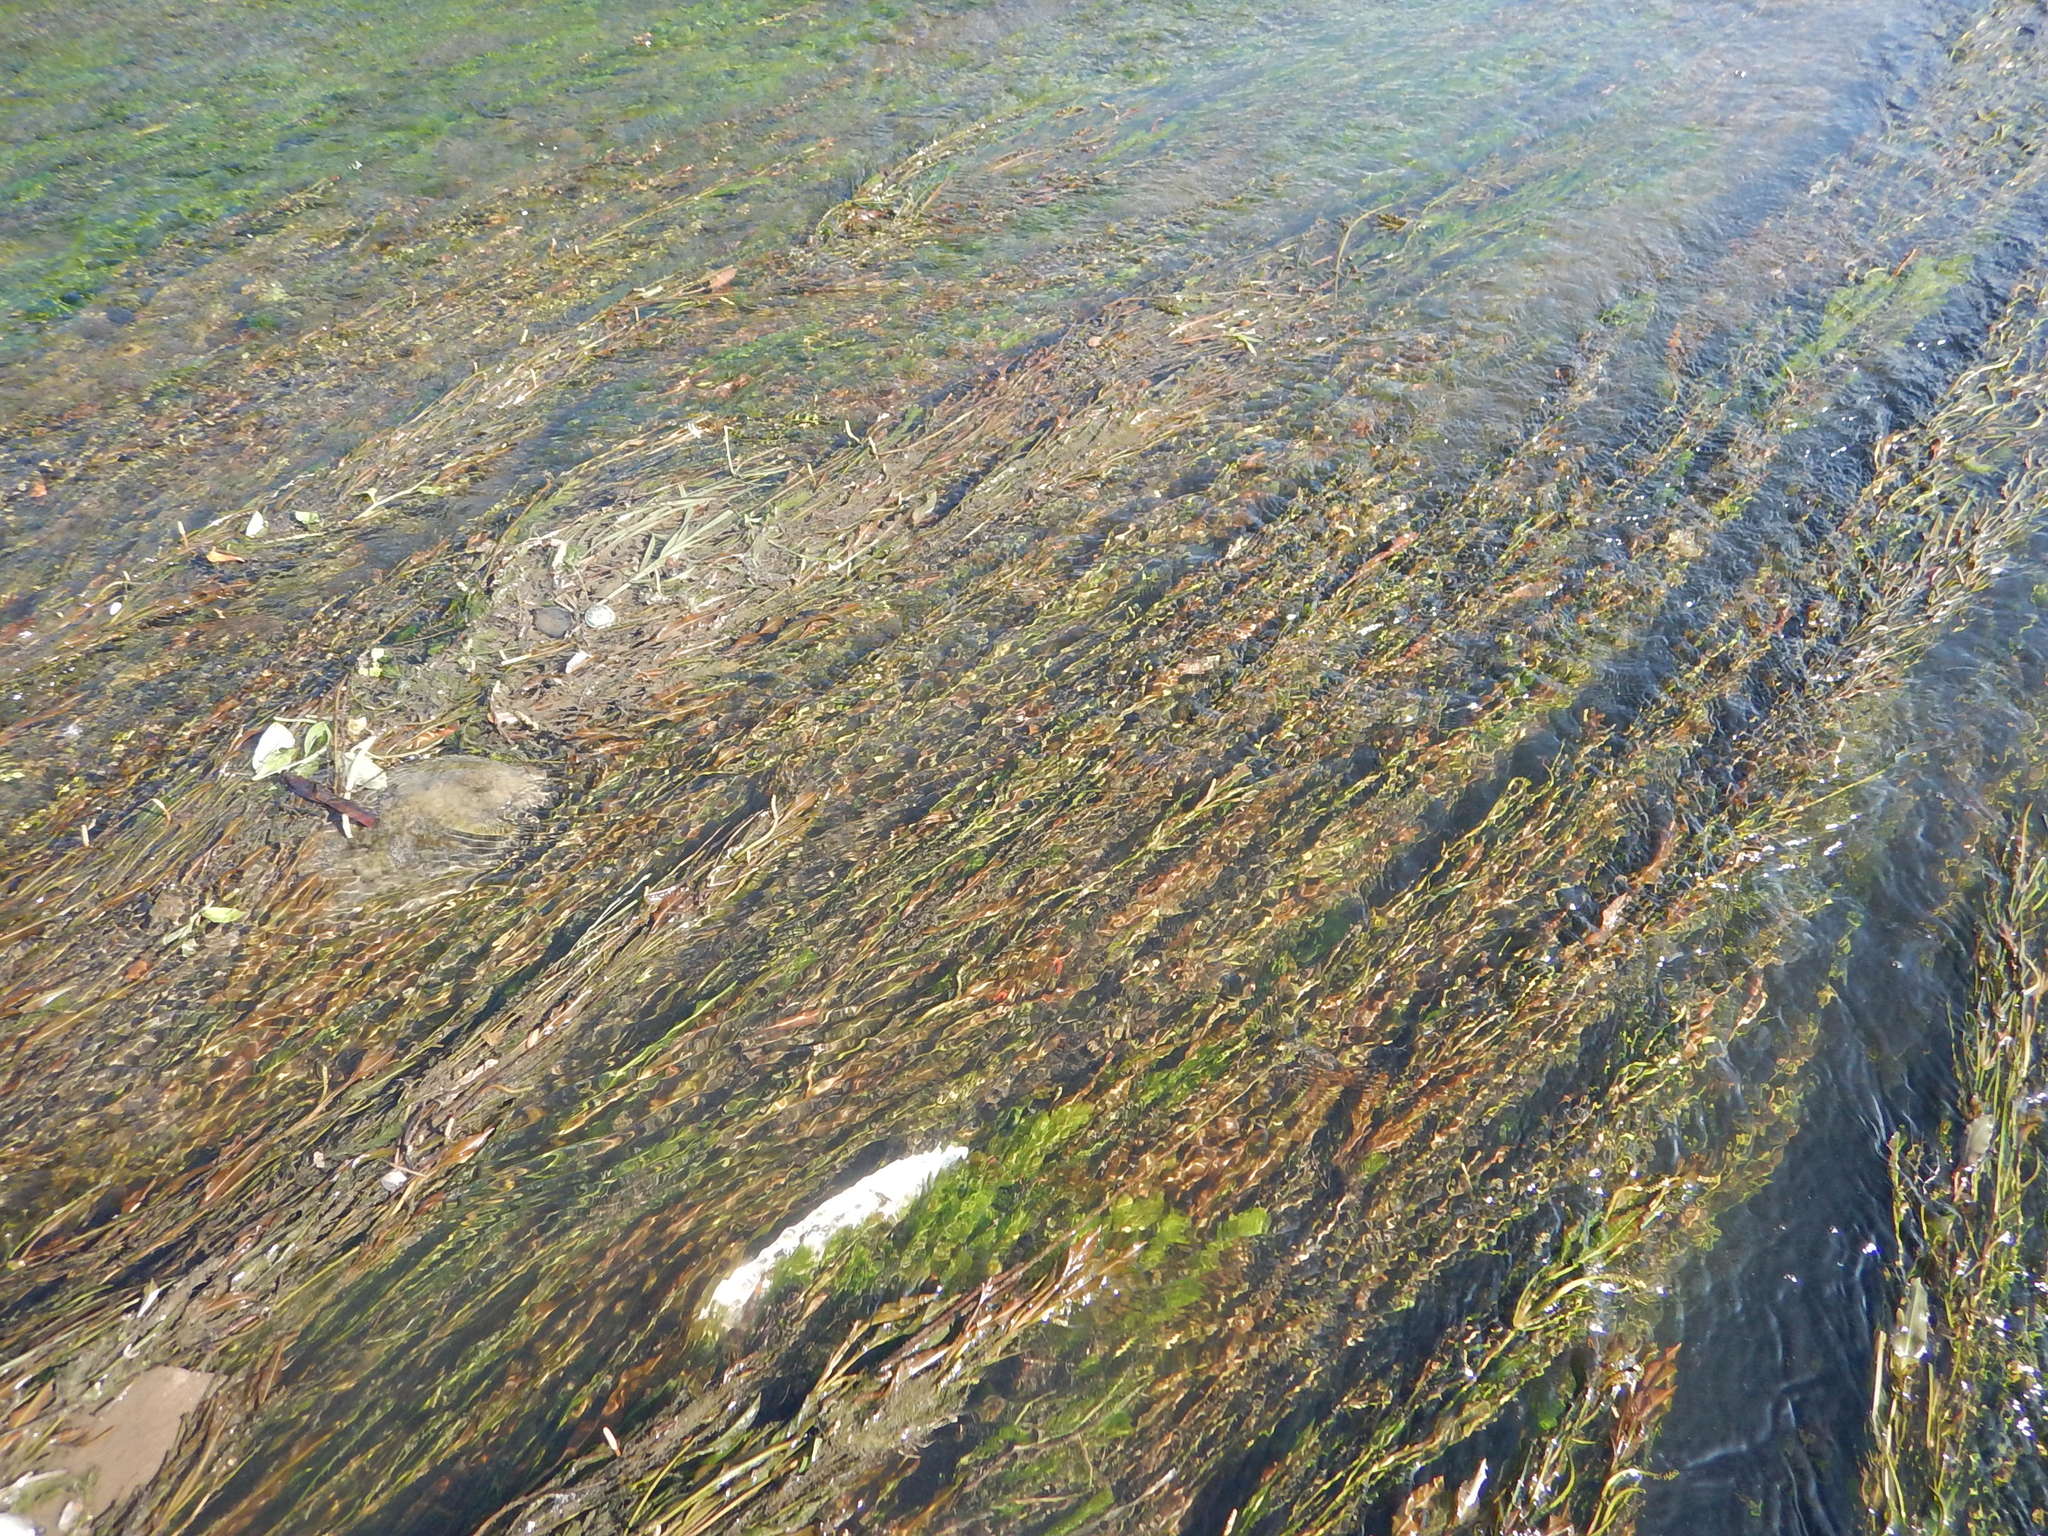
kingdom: Plantae
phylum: Tracheophyta
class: Liliopsida
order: Alismatales
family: Potamogetonaceae
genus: Potamogeton
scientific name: Potamogeton crispus
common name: Curled pondweed
